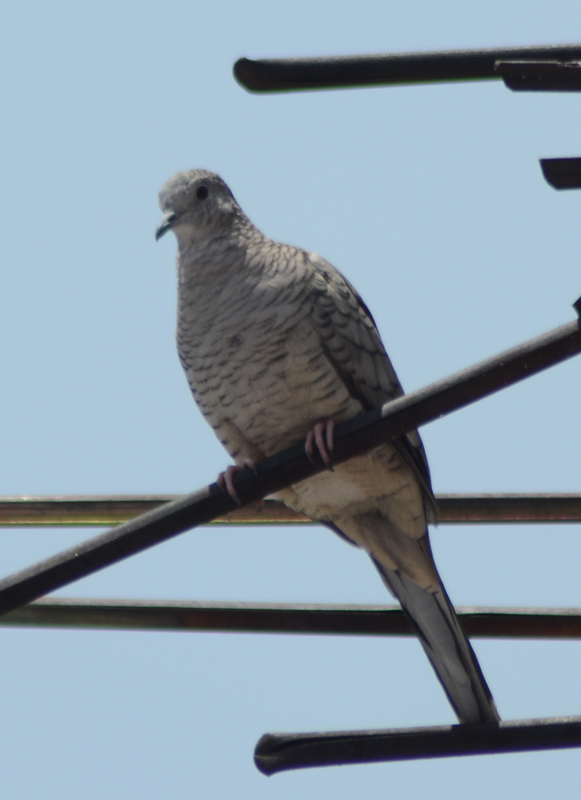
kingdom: Animalia
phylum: Chordata
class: Aves
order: Columbiformes
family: Columbidae
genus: Columbina
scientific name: Columbina inca
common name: Inca dove
